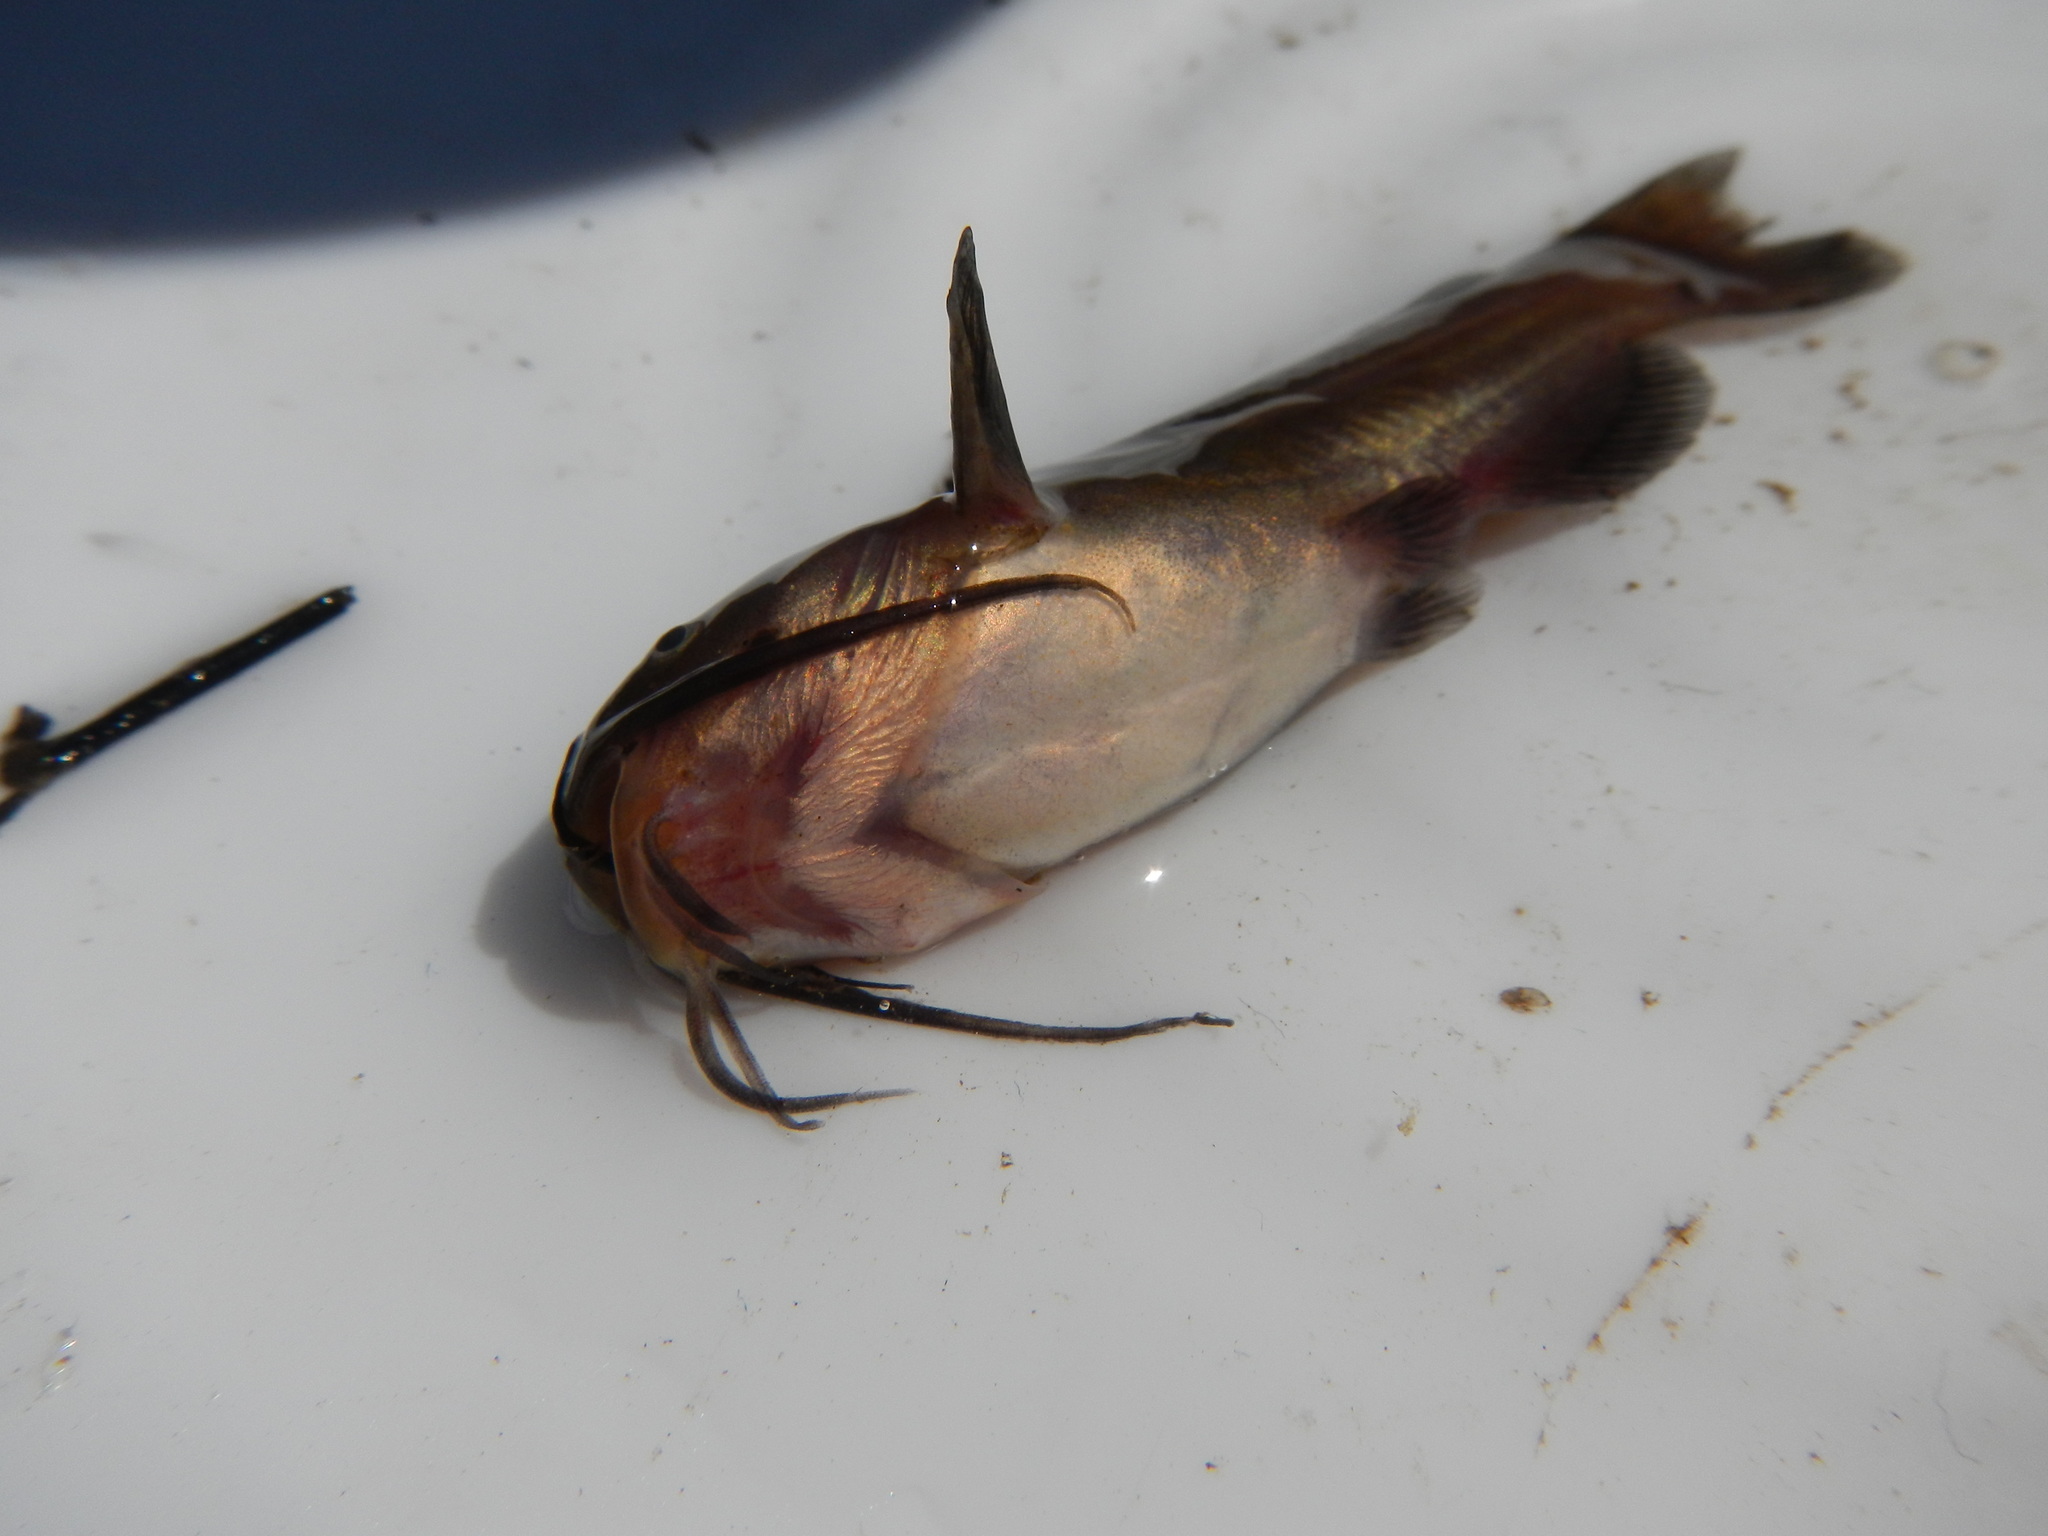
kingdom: Animalia
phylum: Chordata
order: Siluriformes
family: Ictaluridae
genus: Ameiurus
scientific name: Ameiurus melas
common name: Black bullhead
